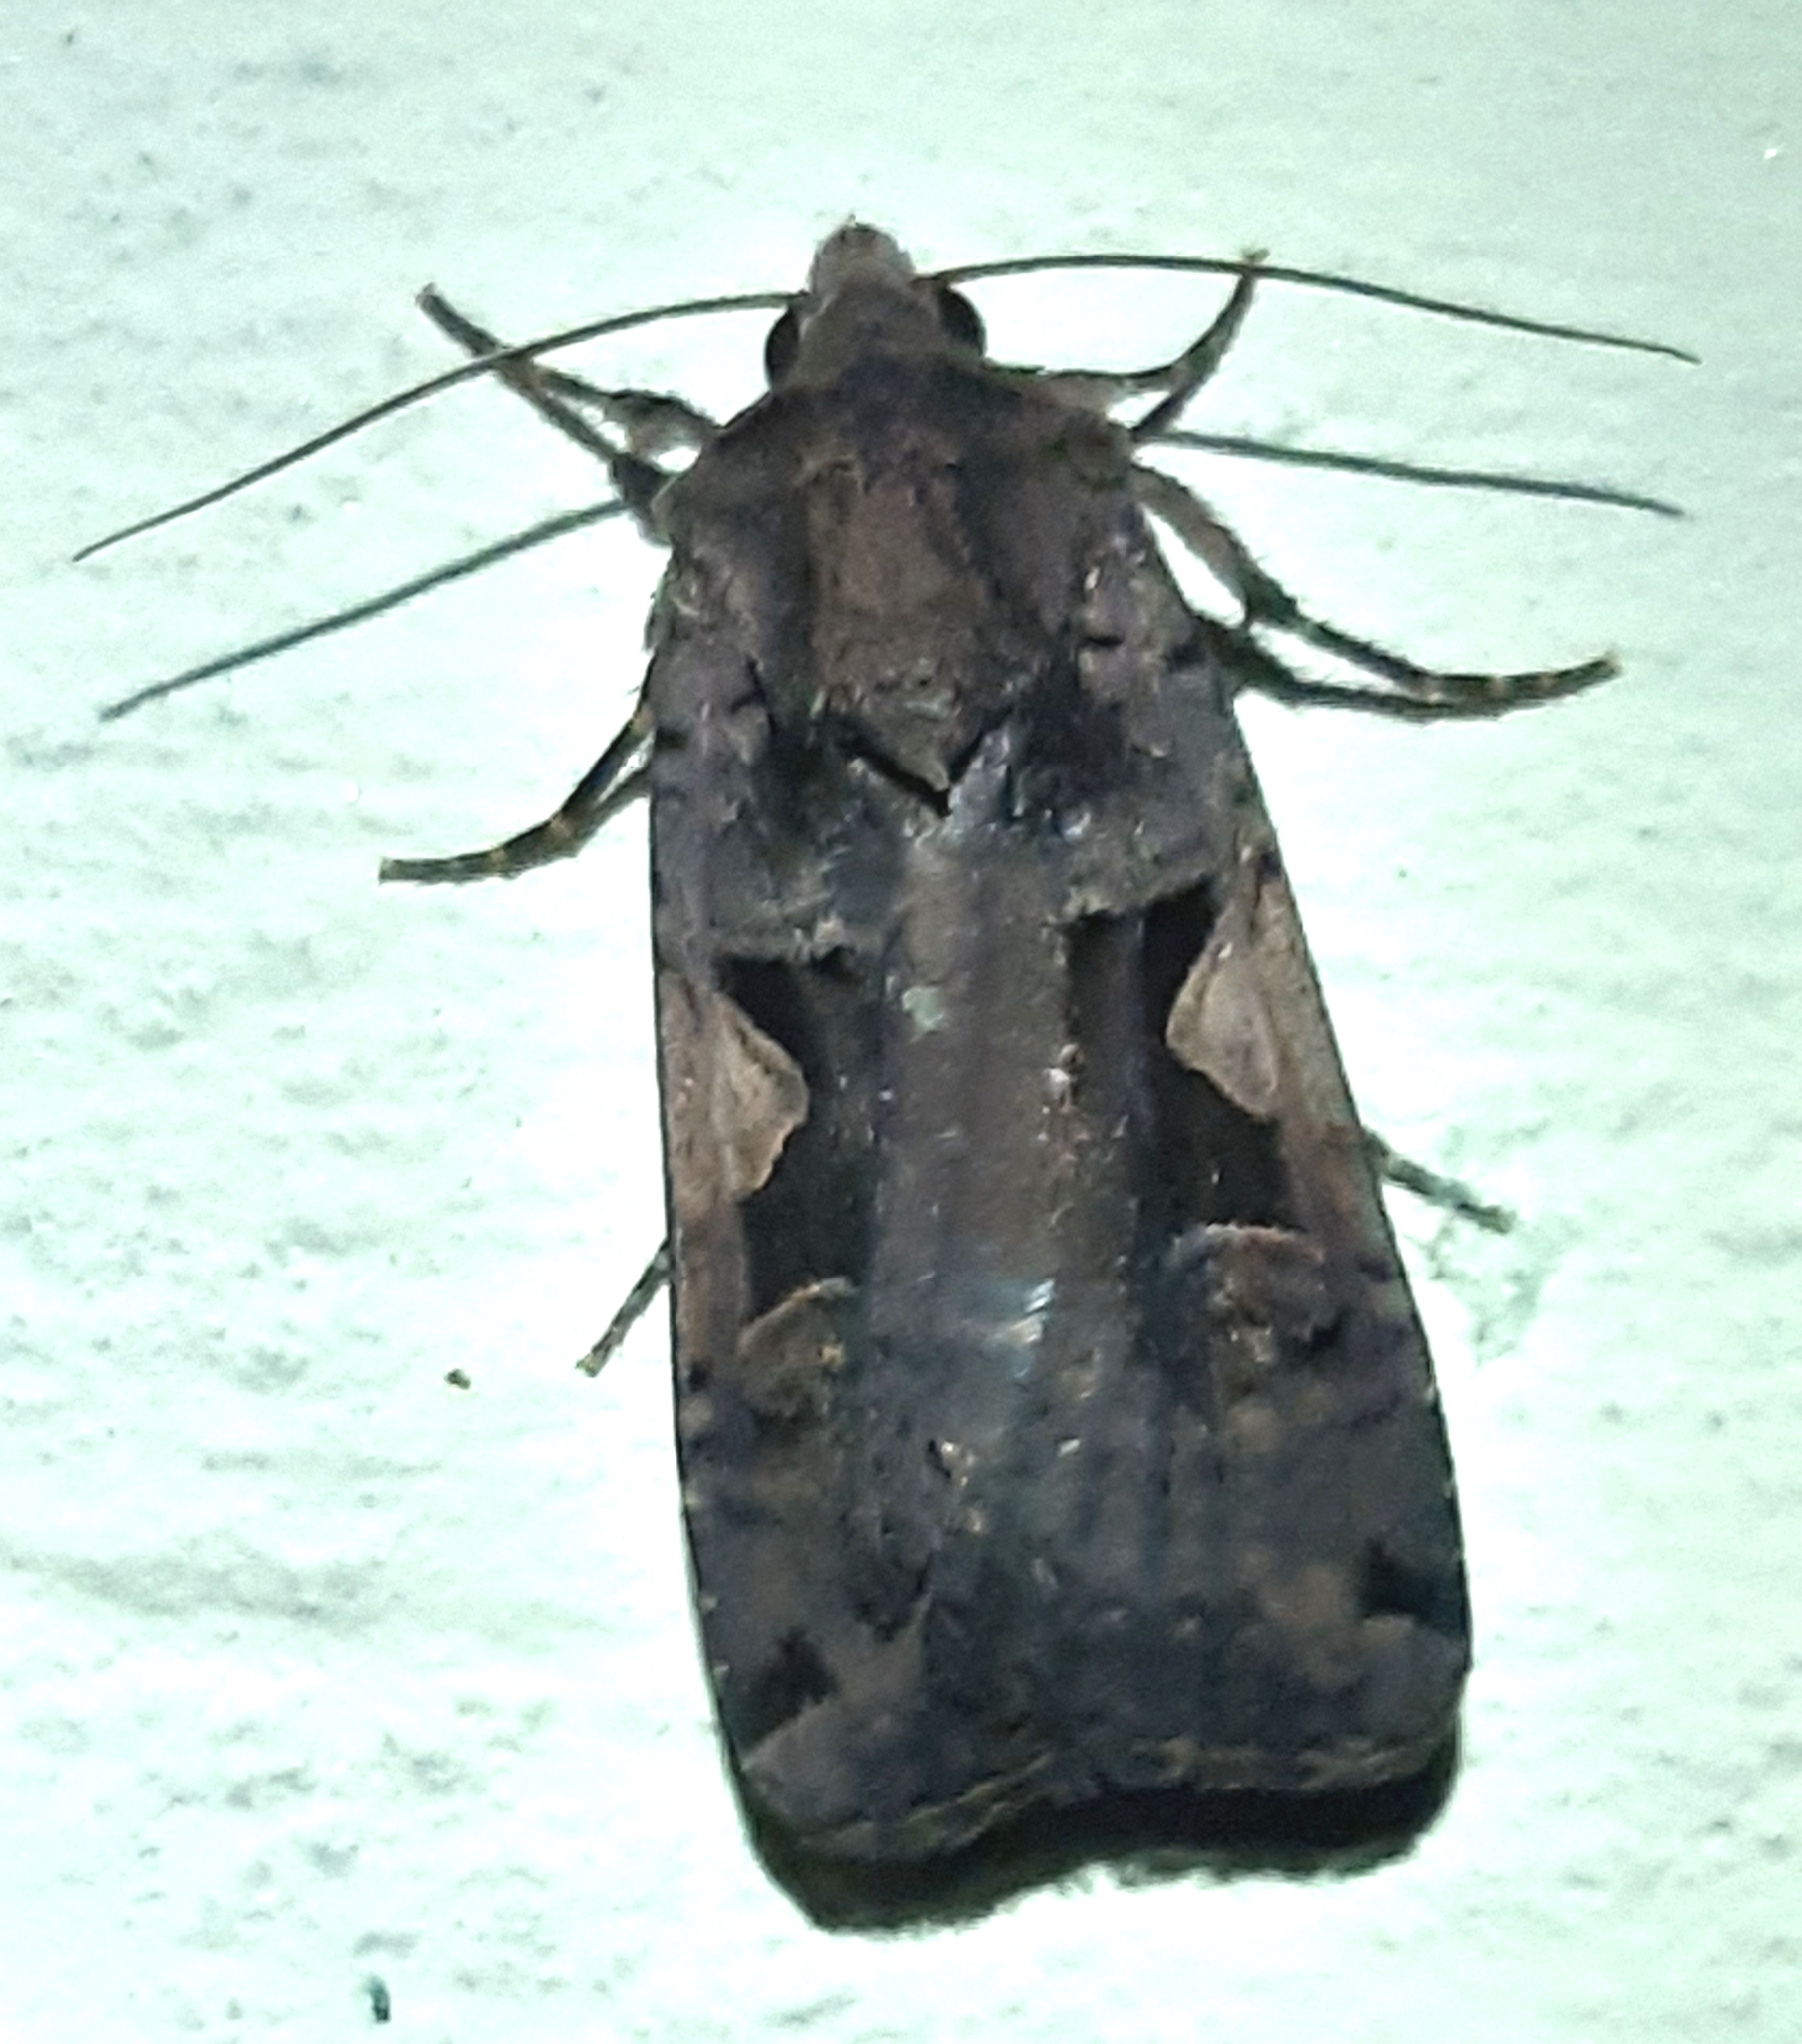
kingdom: Animalia
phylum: Arthropoda
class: Insecta
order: Lepidoptera
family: Noctuidae
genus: Xestia
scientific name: Xestia c-nigrum
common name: Setaceous hebrew character
